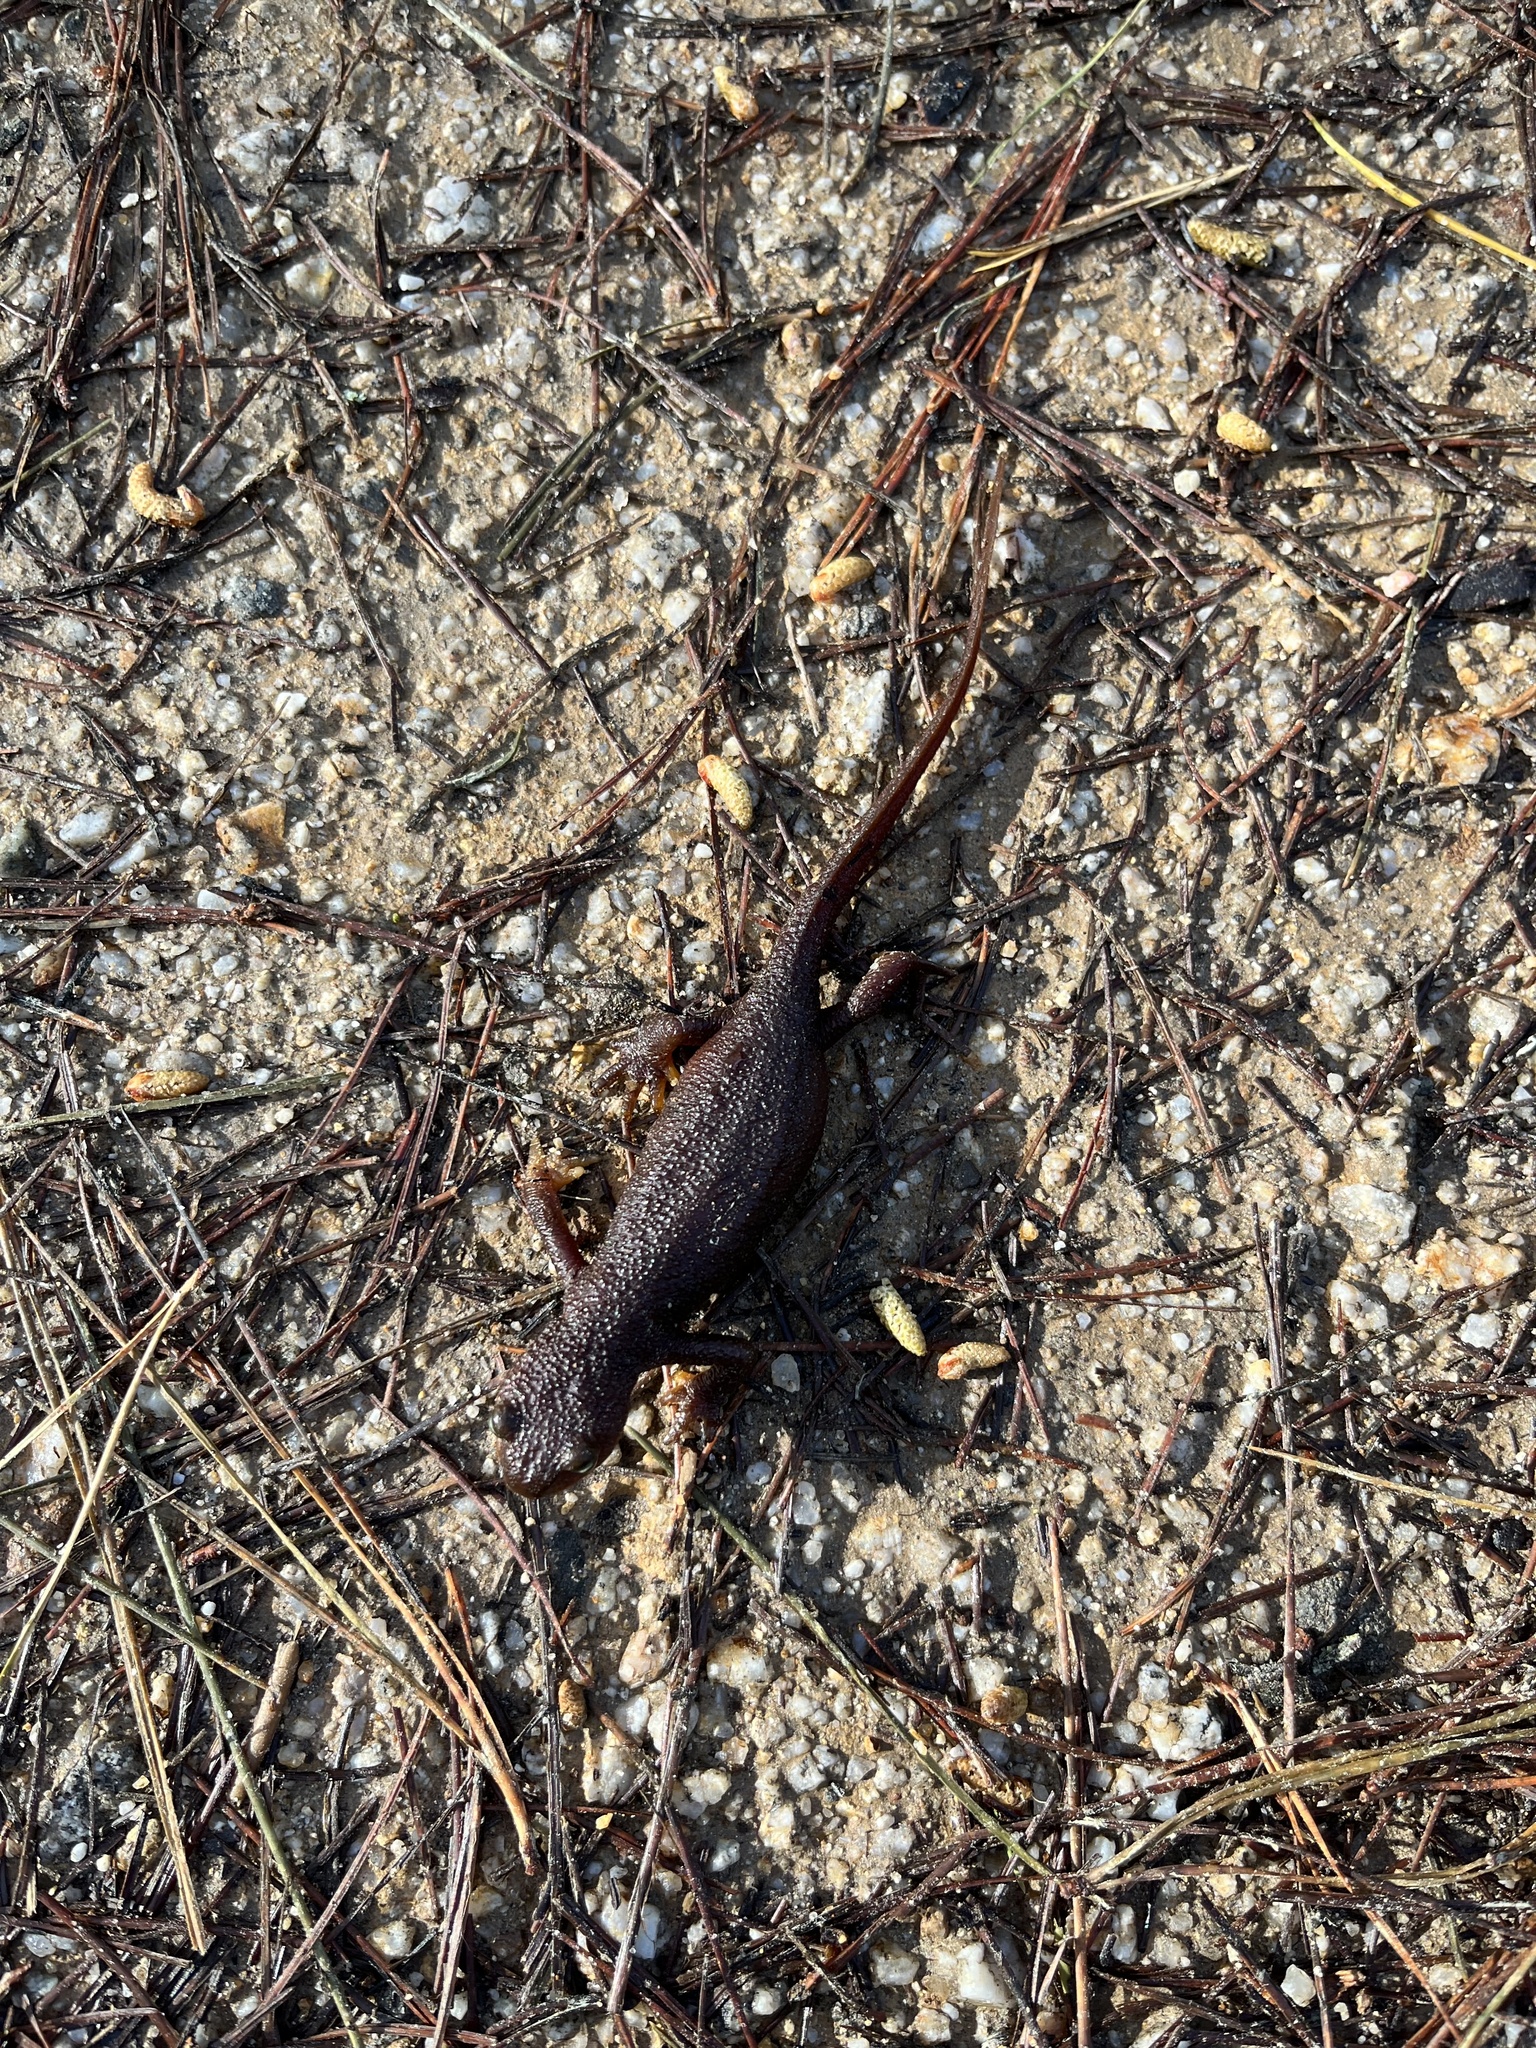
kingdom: Animalia
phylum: Chordata
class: Amphibia
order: Caudata
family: Salamandridae
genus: Taricha
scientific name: Taricha torosa
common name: California newt
